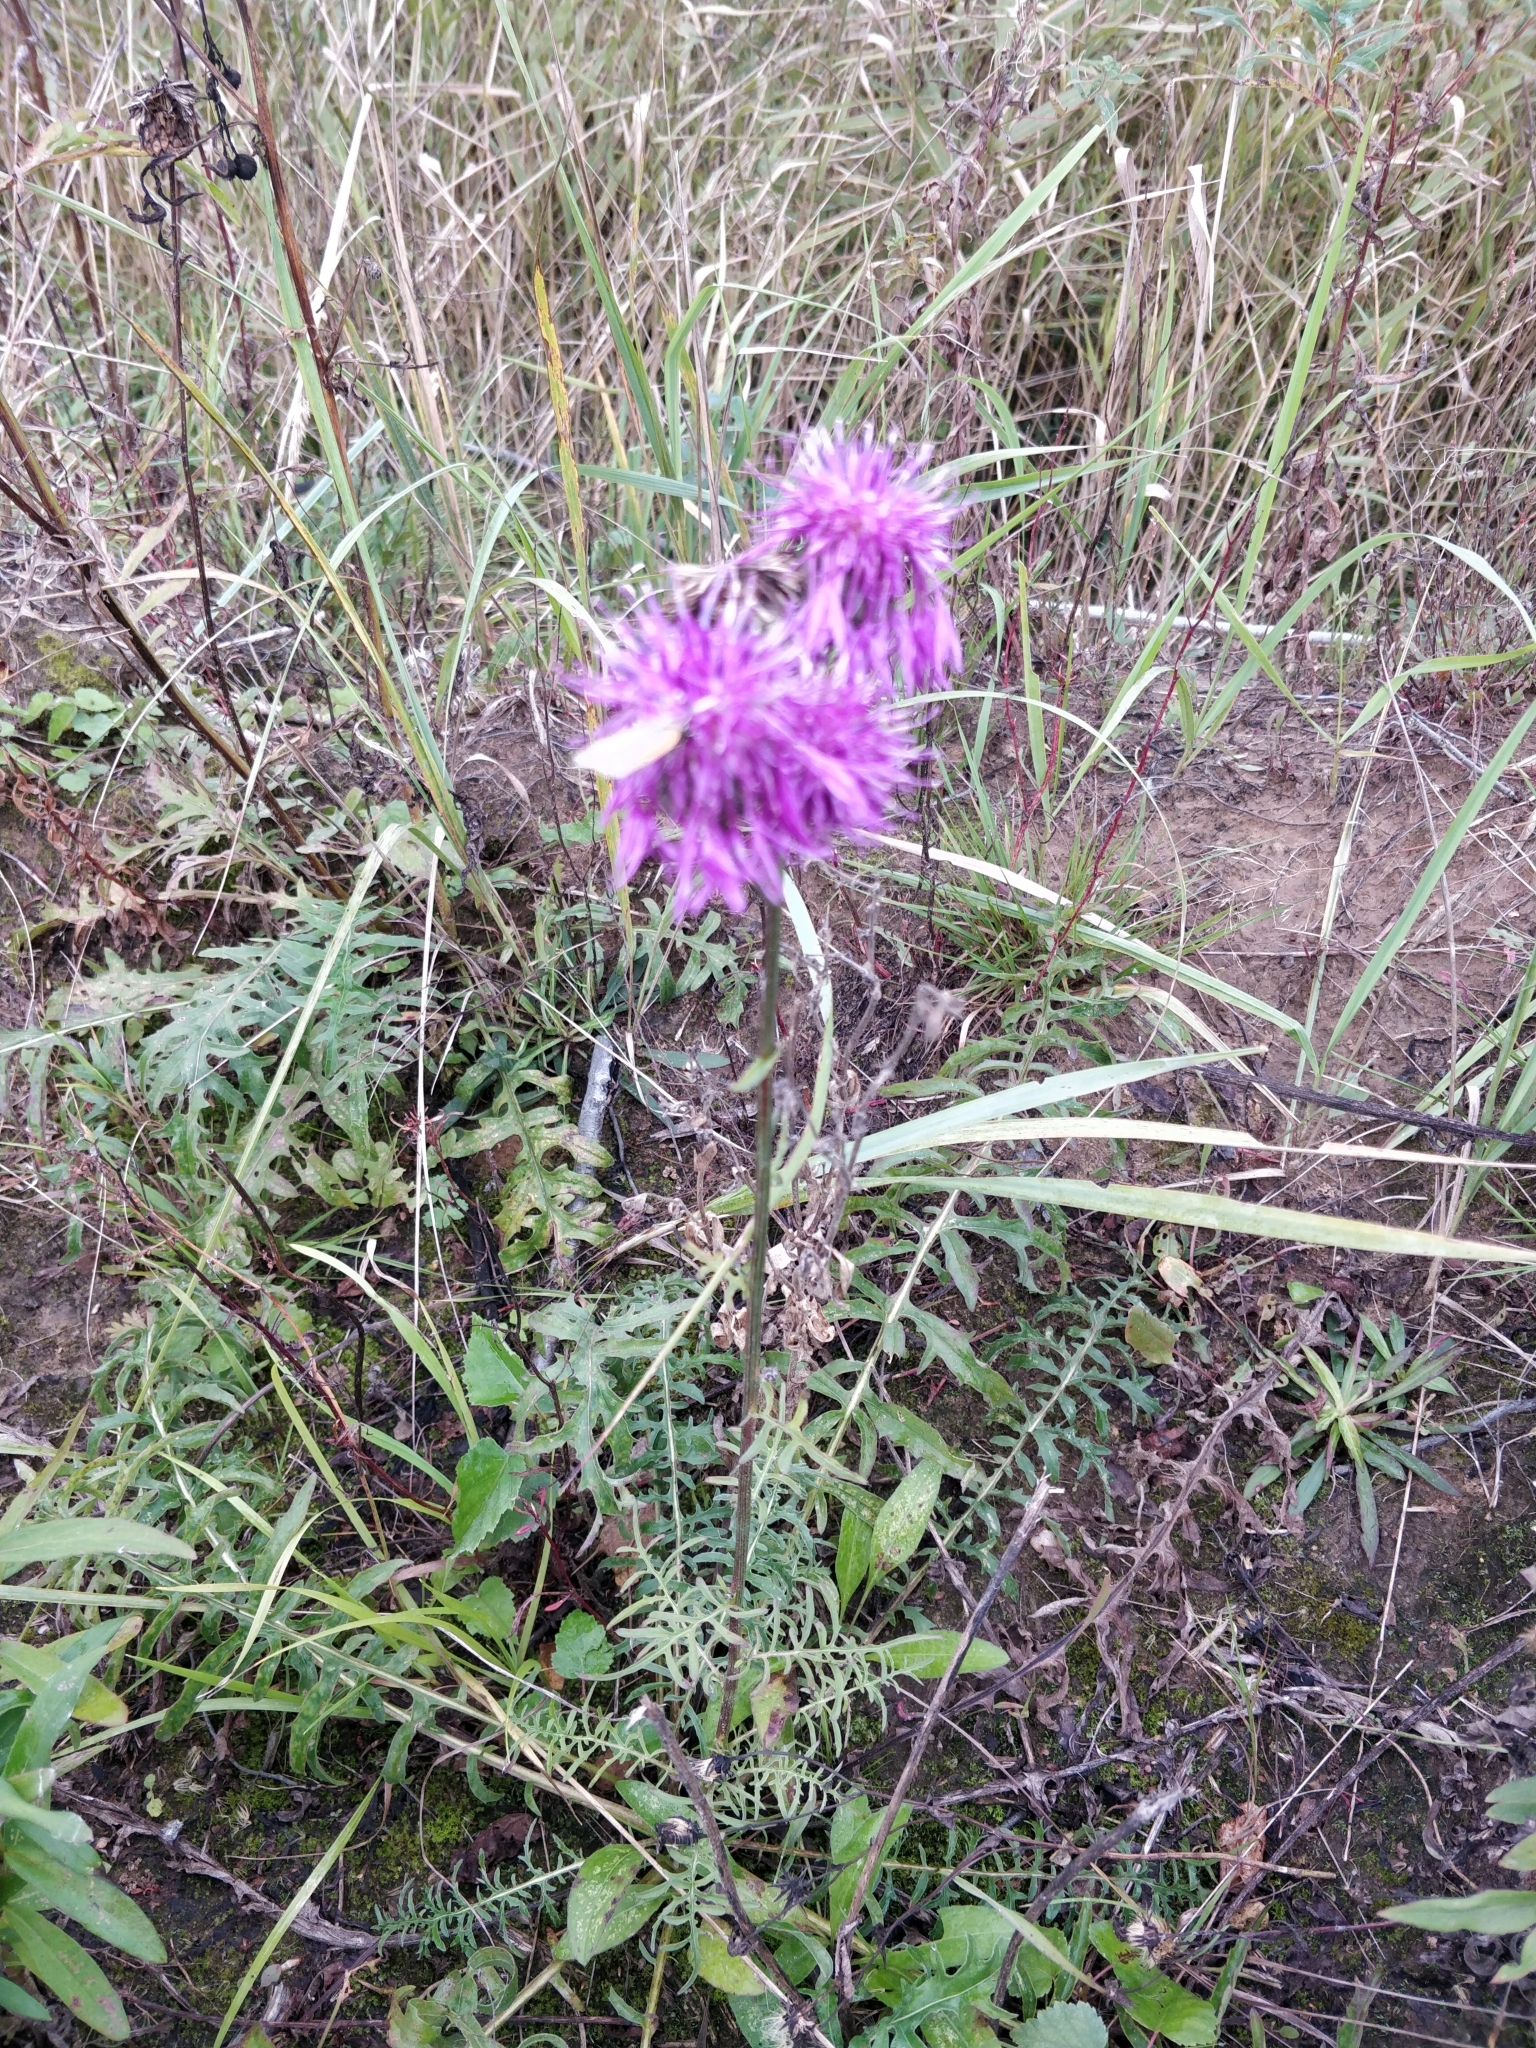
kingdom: Plantae
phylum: Tracheophyta
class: Magnoliopsida
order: Asterales
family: Asteraceae
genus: Centaurea
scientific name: Centaurea scabiosa
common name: Greater knapweed
